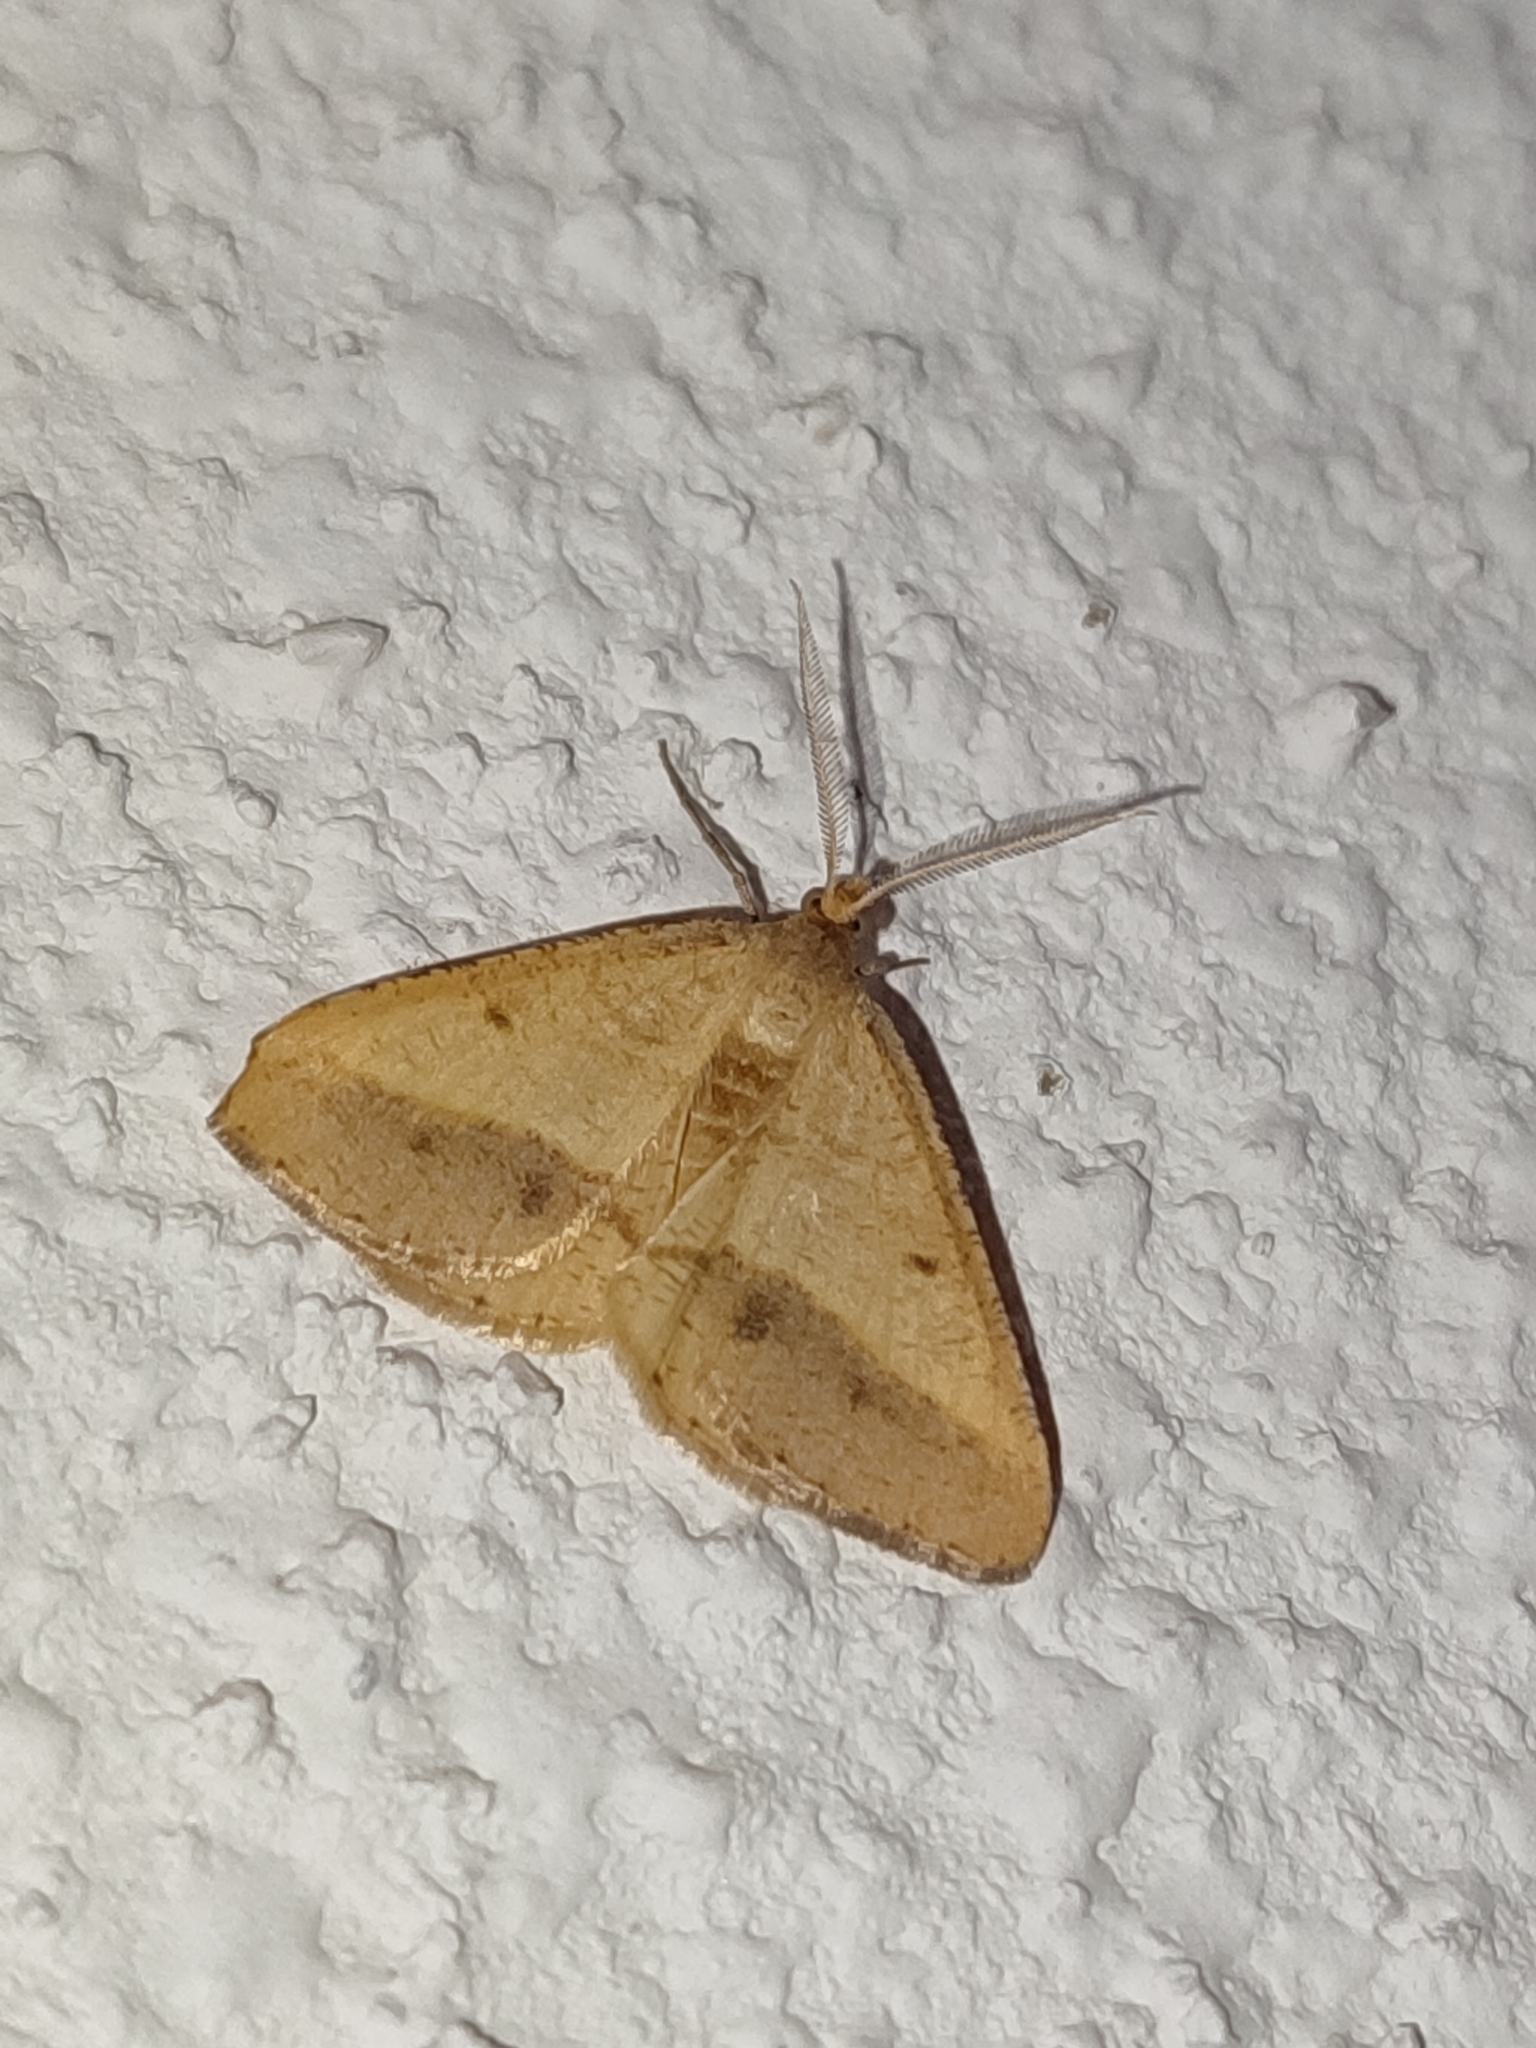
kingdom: Animalia
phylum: Arthropoda
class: Insecta
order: Lepidoptera
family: Geometridae
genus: Tephrina
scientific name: Tephrina arenacearia
